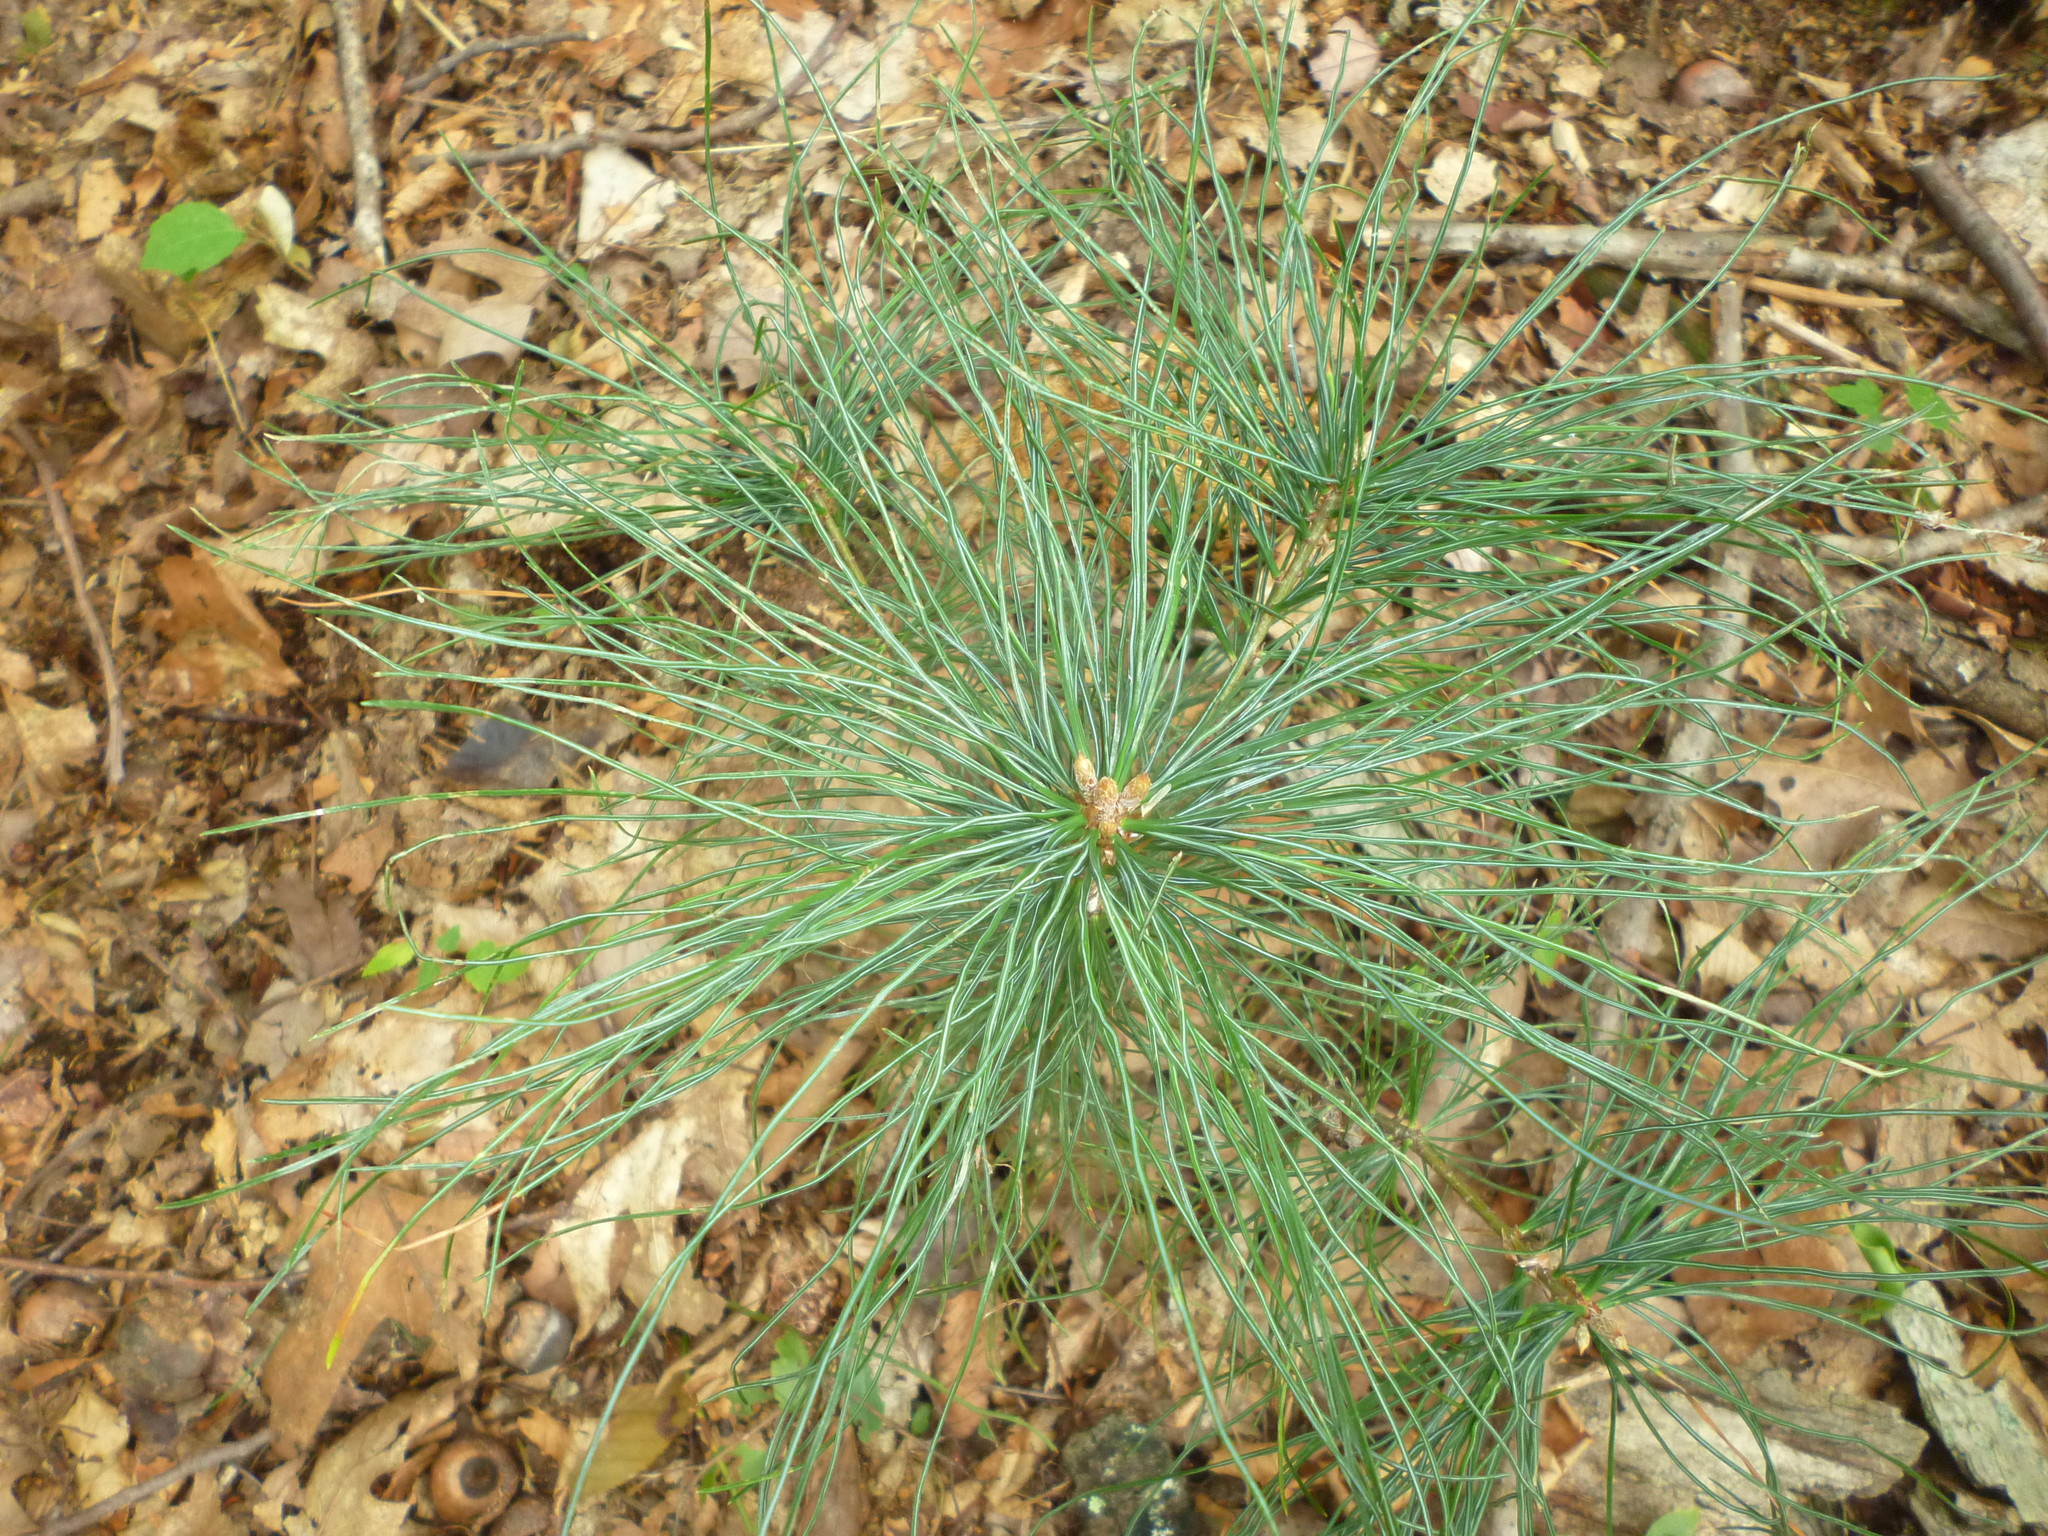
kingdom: Plantae
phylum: Tracheophyta
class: Pinopsida
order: Pinales
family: Pinaceae
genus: Pinus
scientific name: Pinus strobus
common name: Weymouth pine
